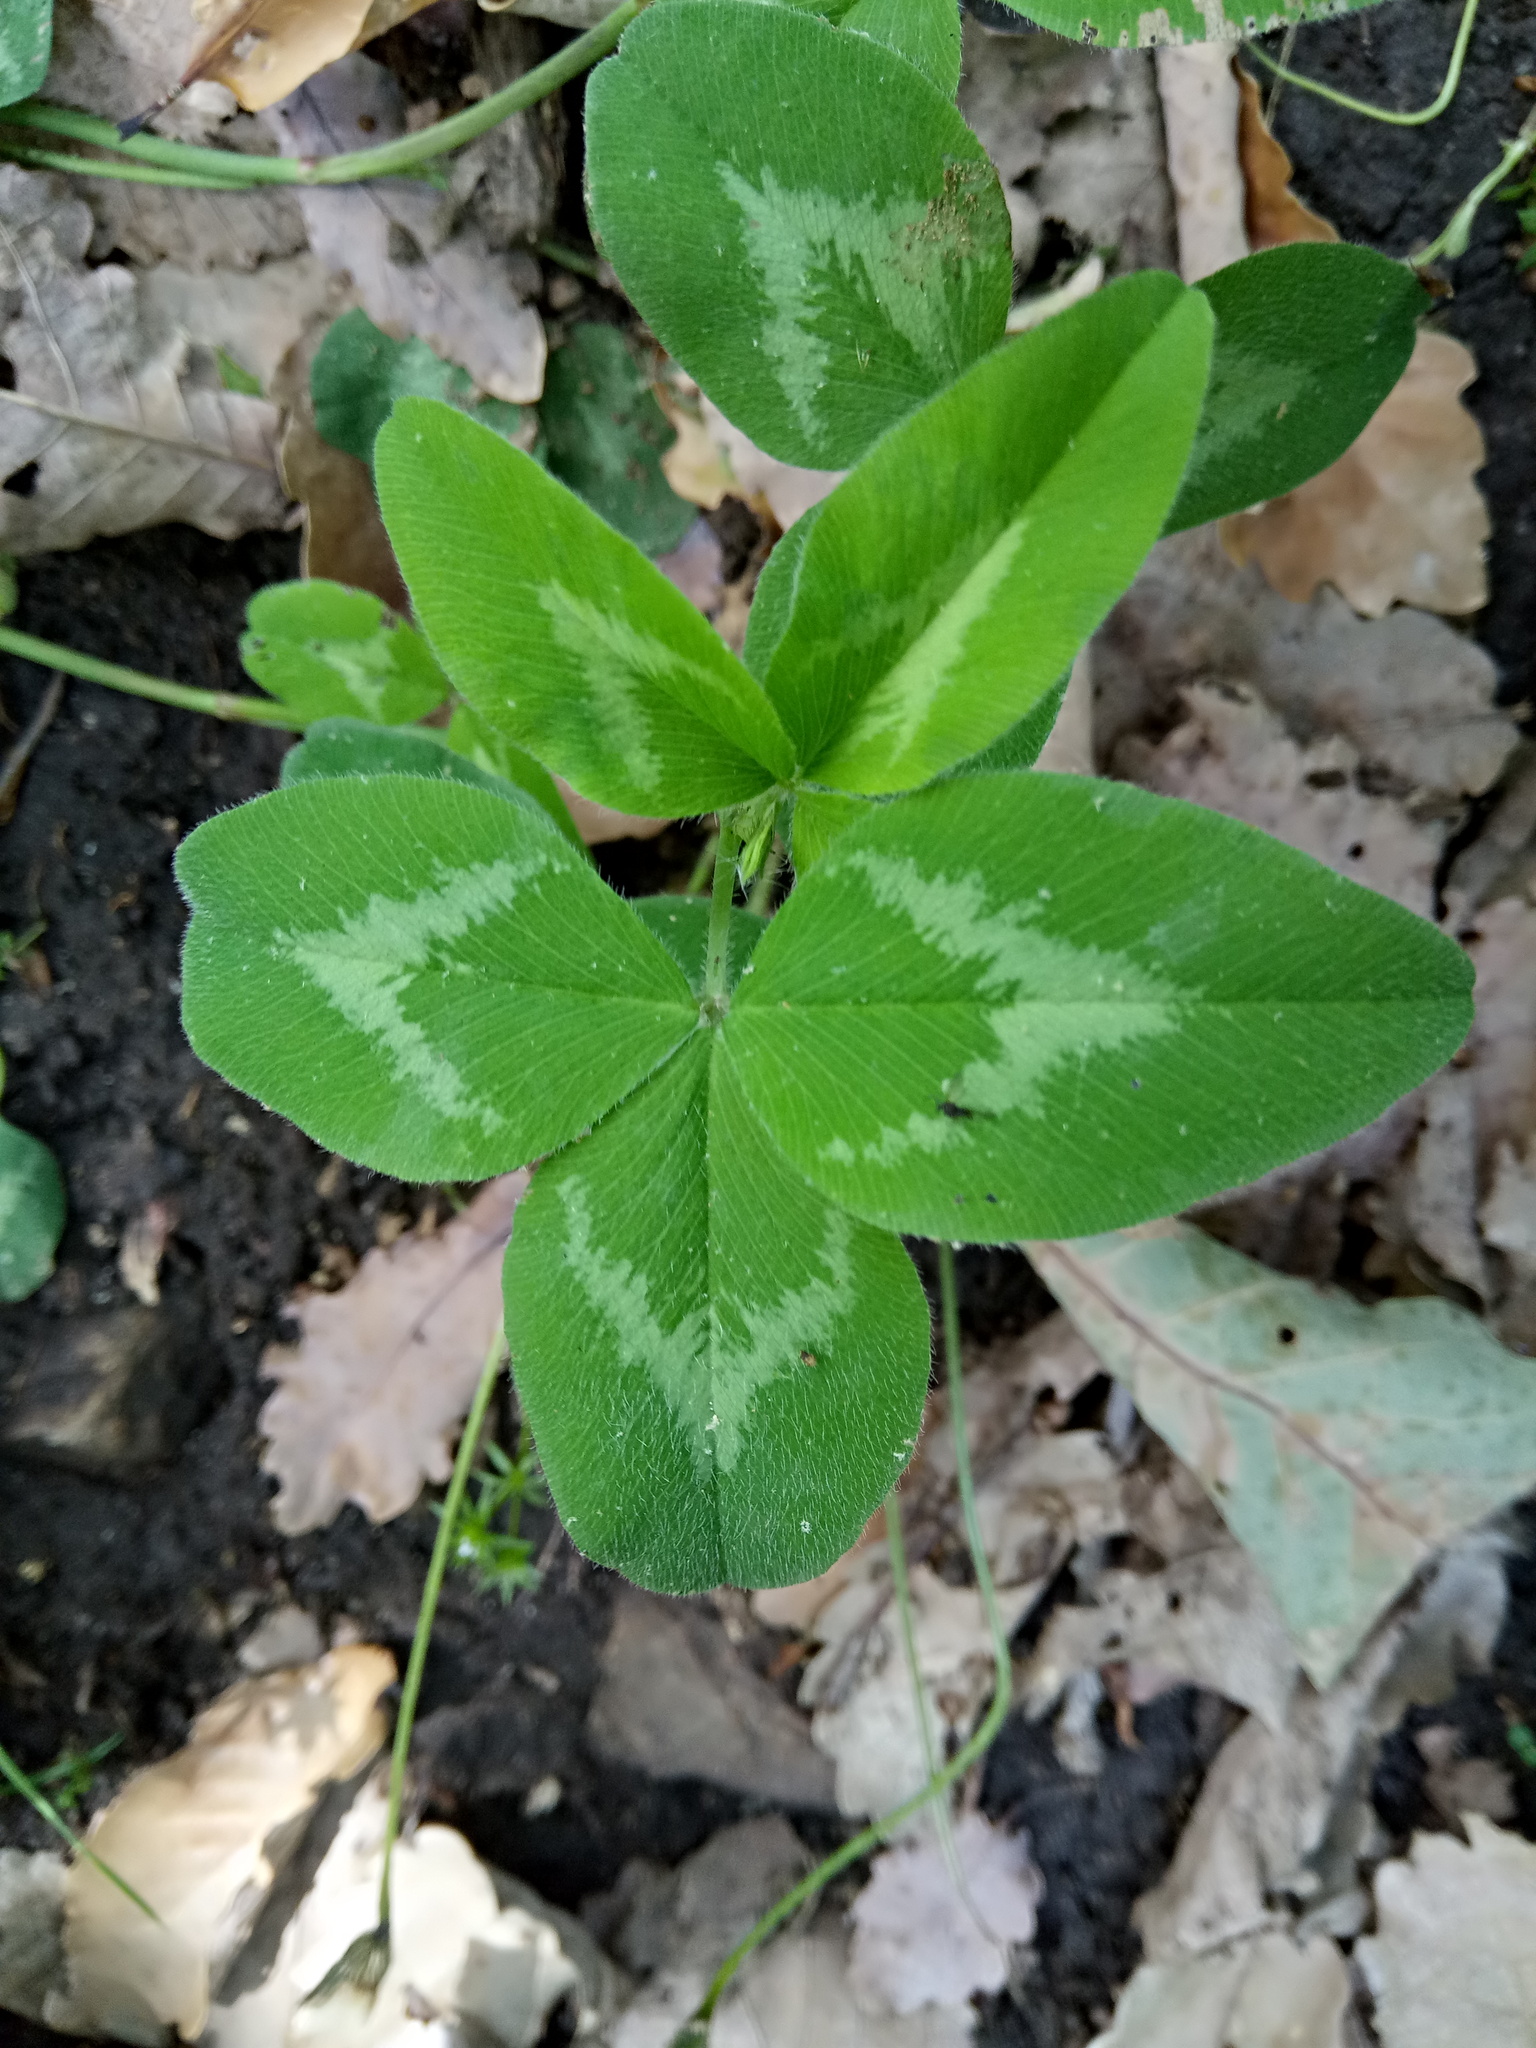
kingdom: Plantae
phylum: Tracheophyta
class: Magnoliopsida
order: Fabales
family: Fabaceae
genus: Trifolium
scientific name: Trifolium pratense
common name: Red clover
